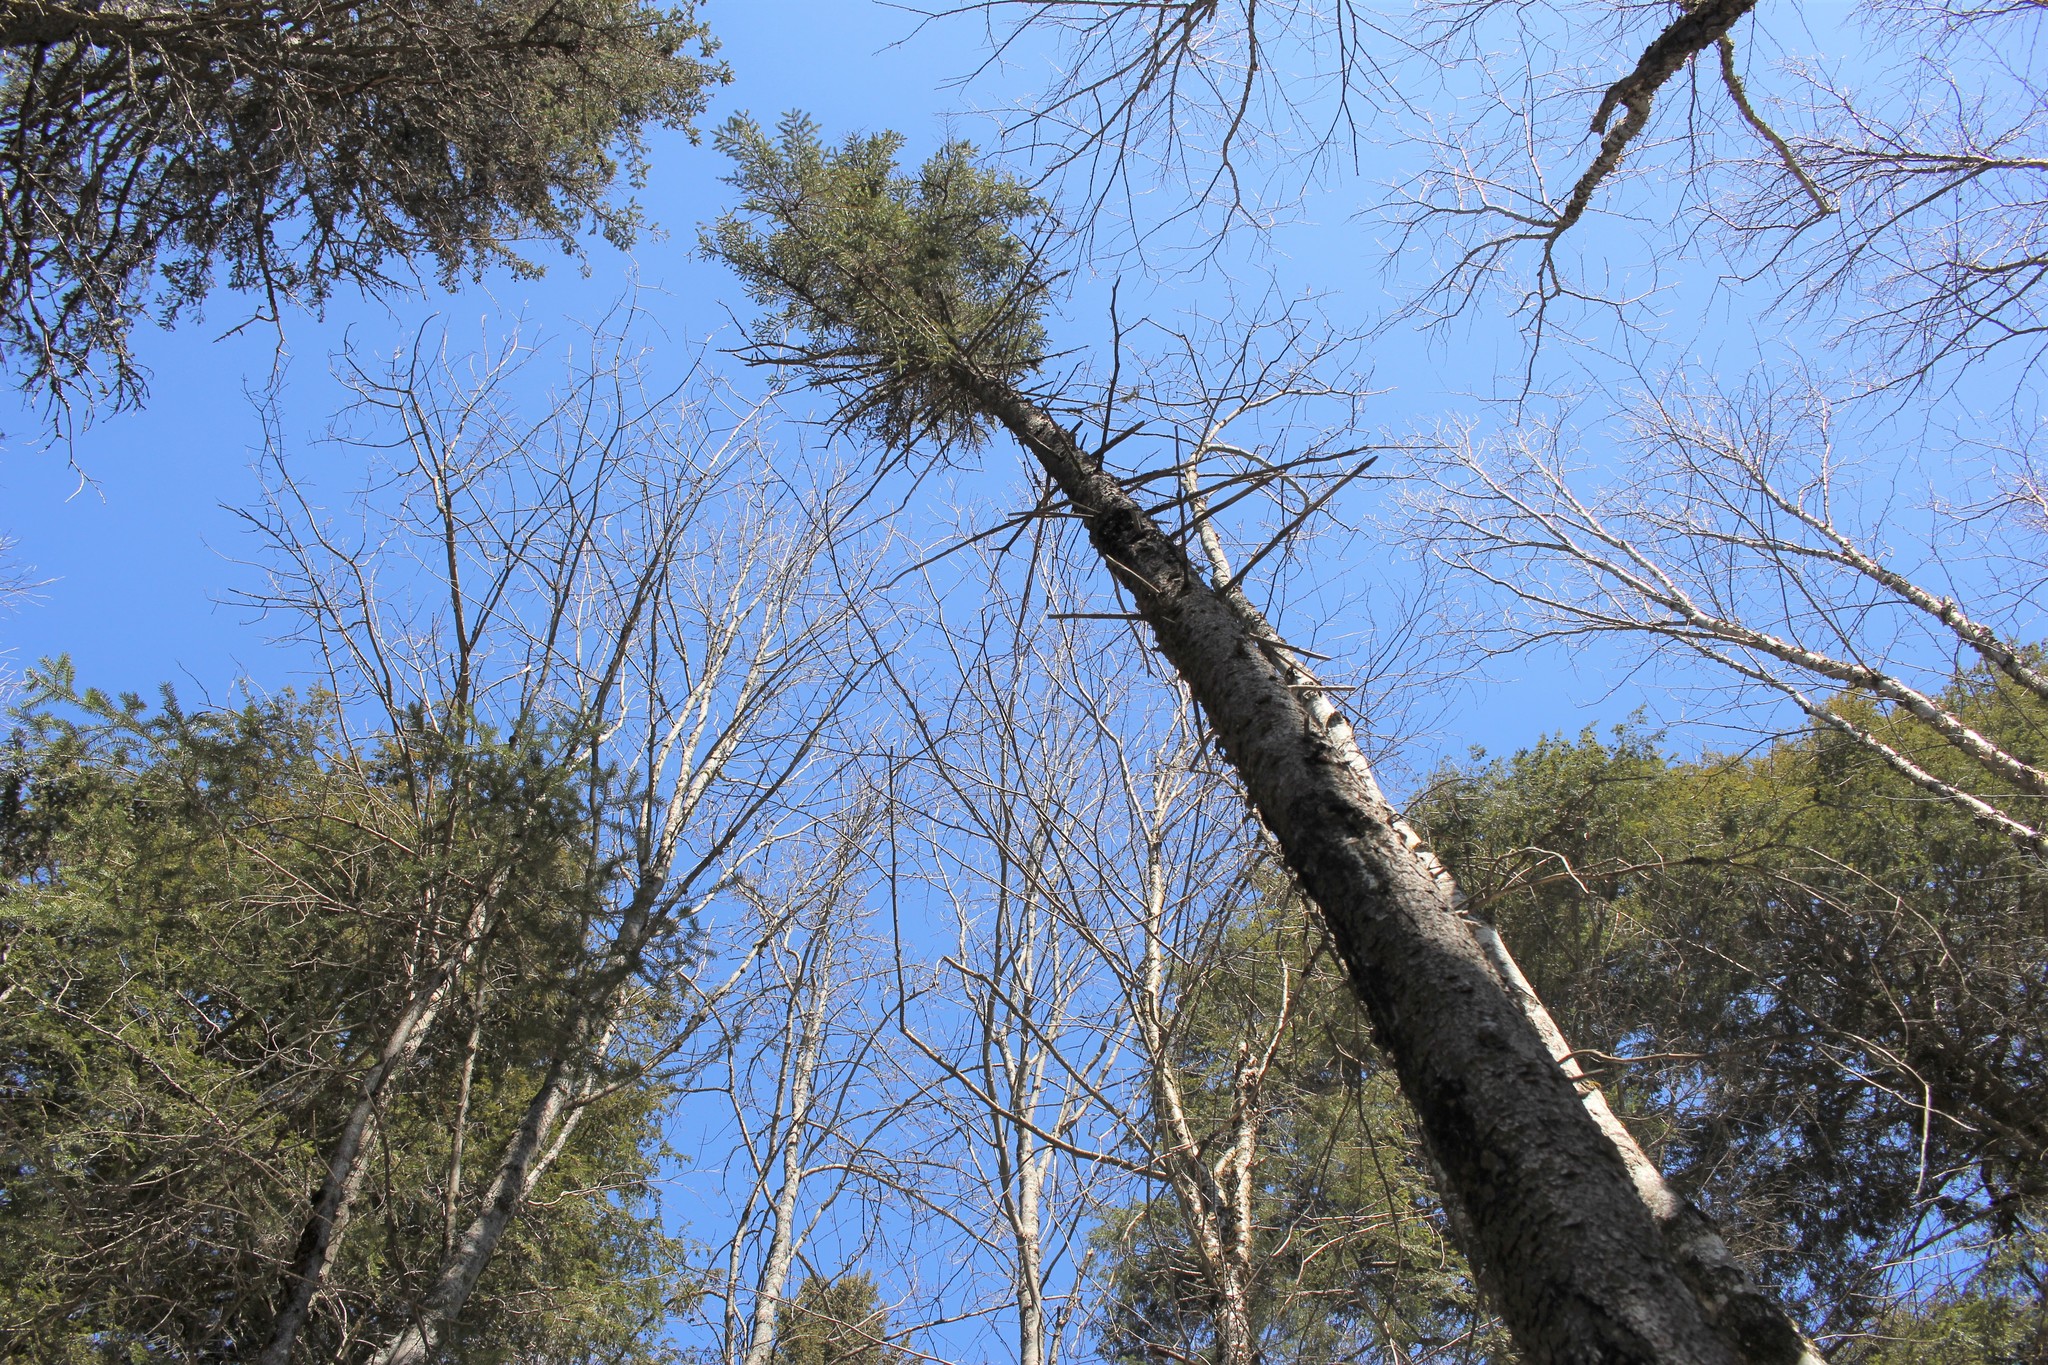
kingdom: Plantae
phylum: Tracheophyta
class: Pinopsida
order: Pinales
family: Pinaceae
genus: Picea
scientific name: Picea rubens
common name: Red spruce
